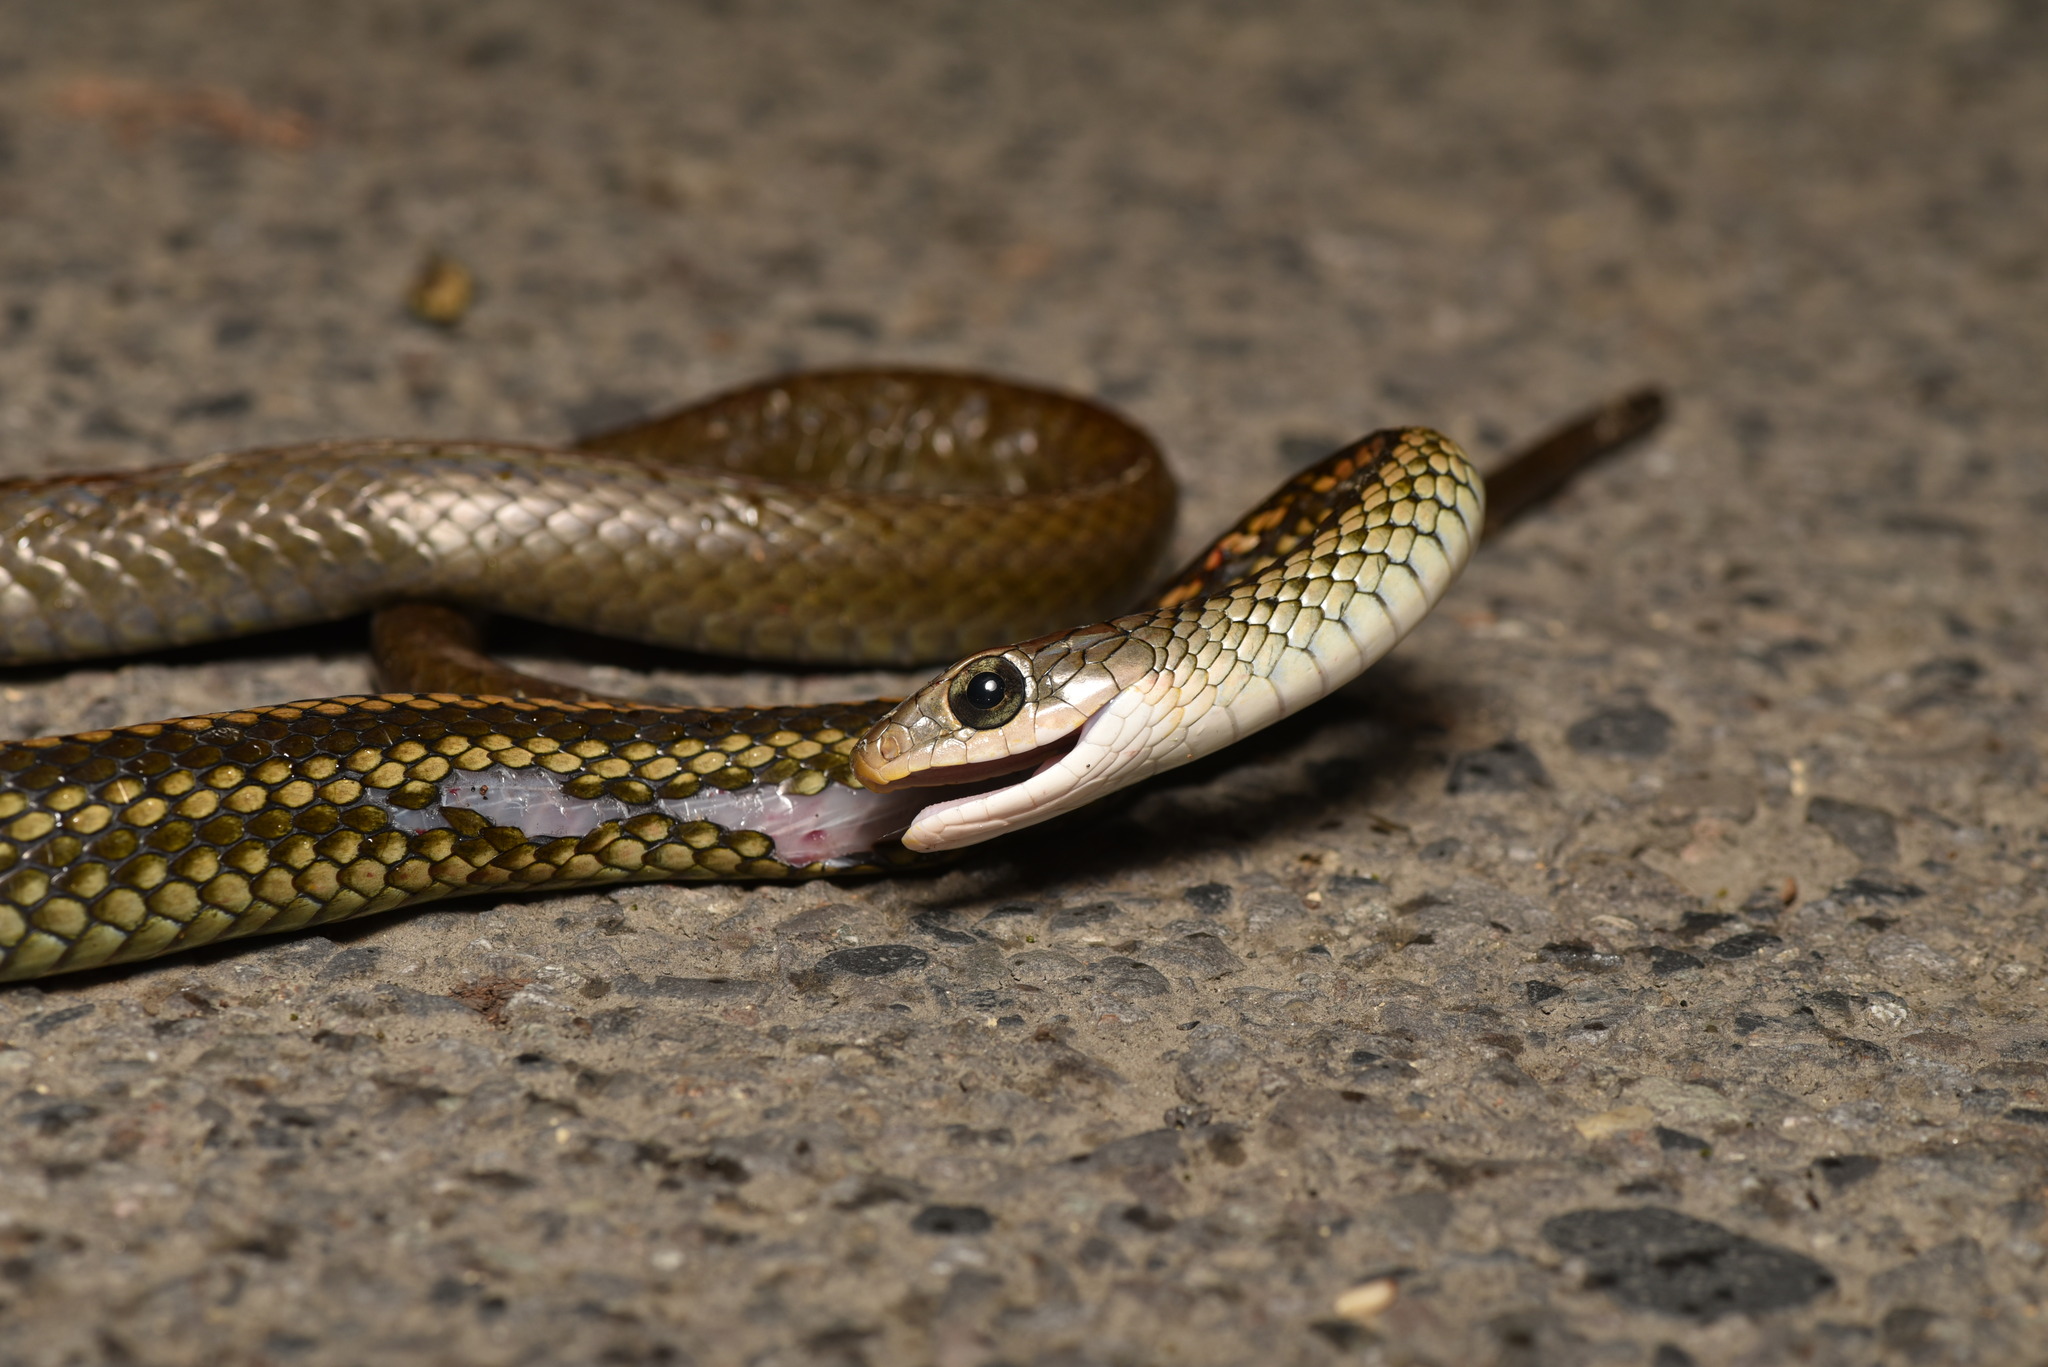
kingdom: Animalia
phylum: Chordata
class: Squamata
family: Colubridae
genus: Ptyas
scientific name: Ptyas dhumnades
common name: Black-striped rat snake
